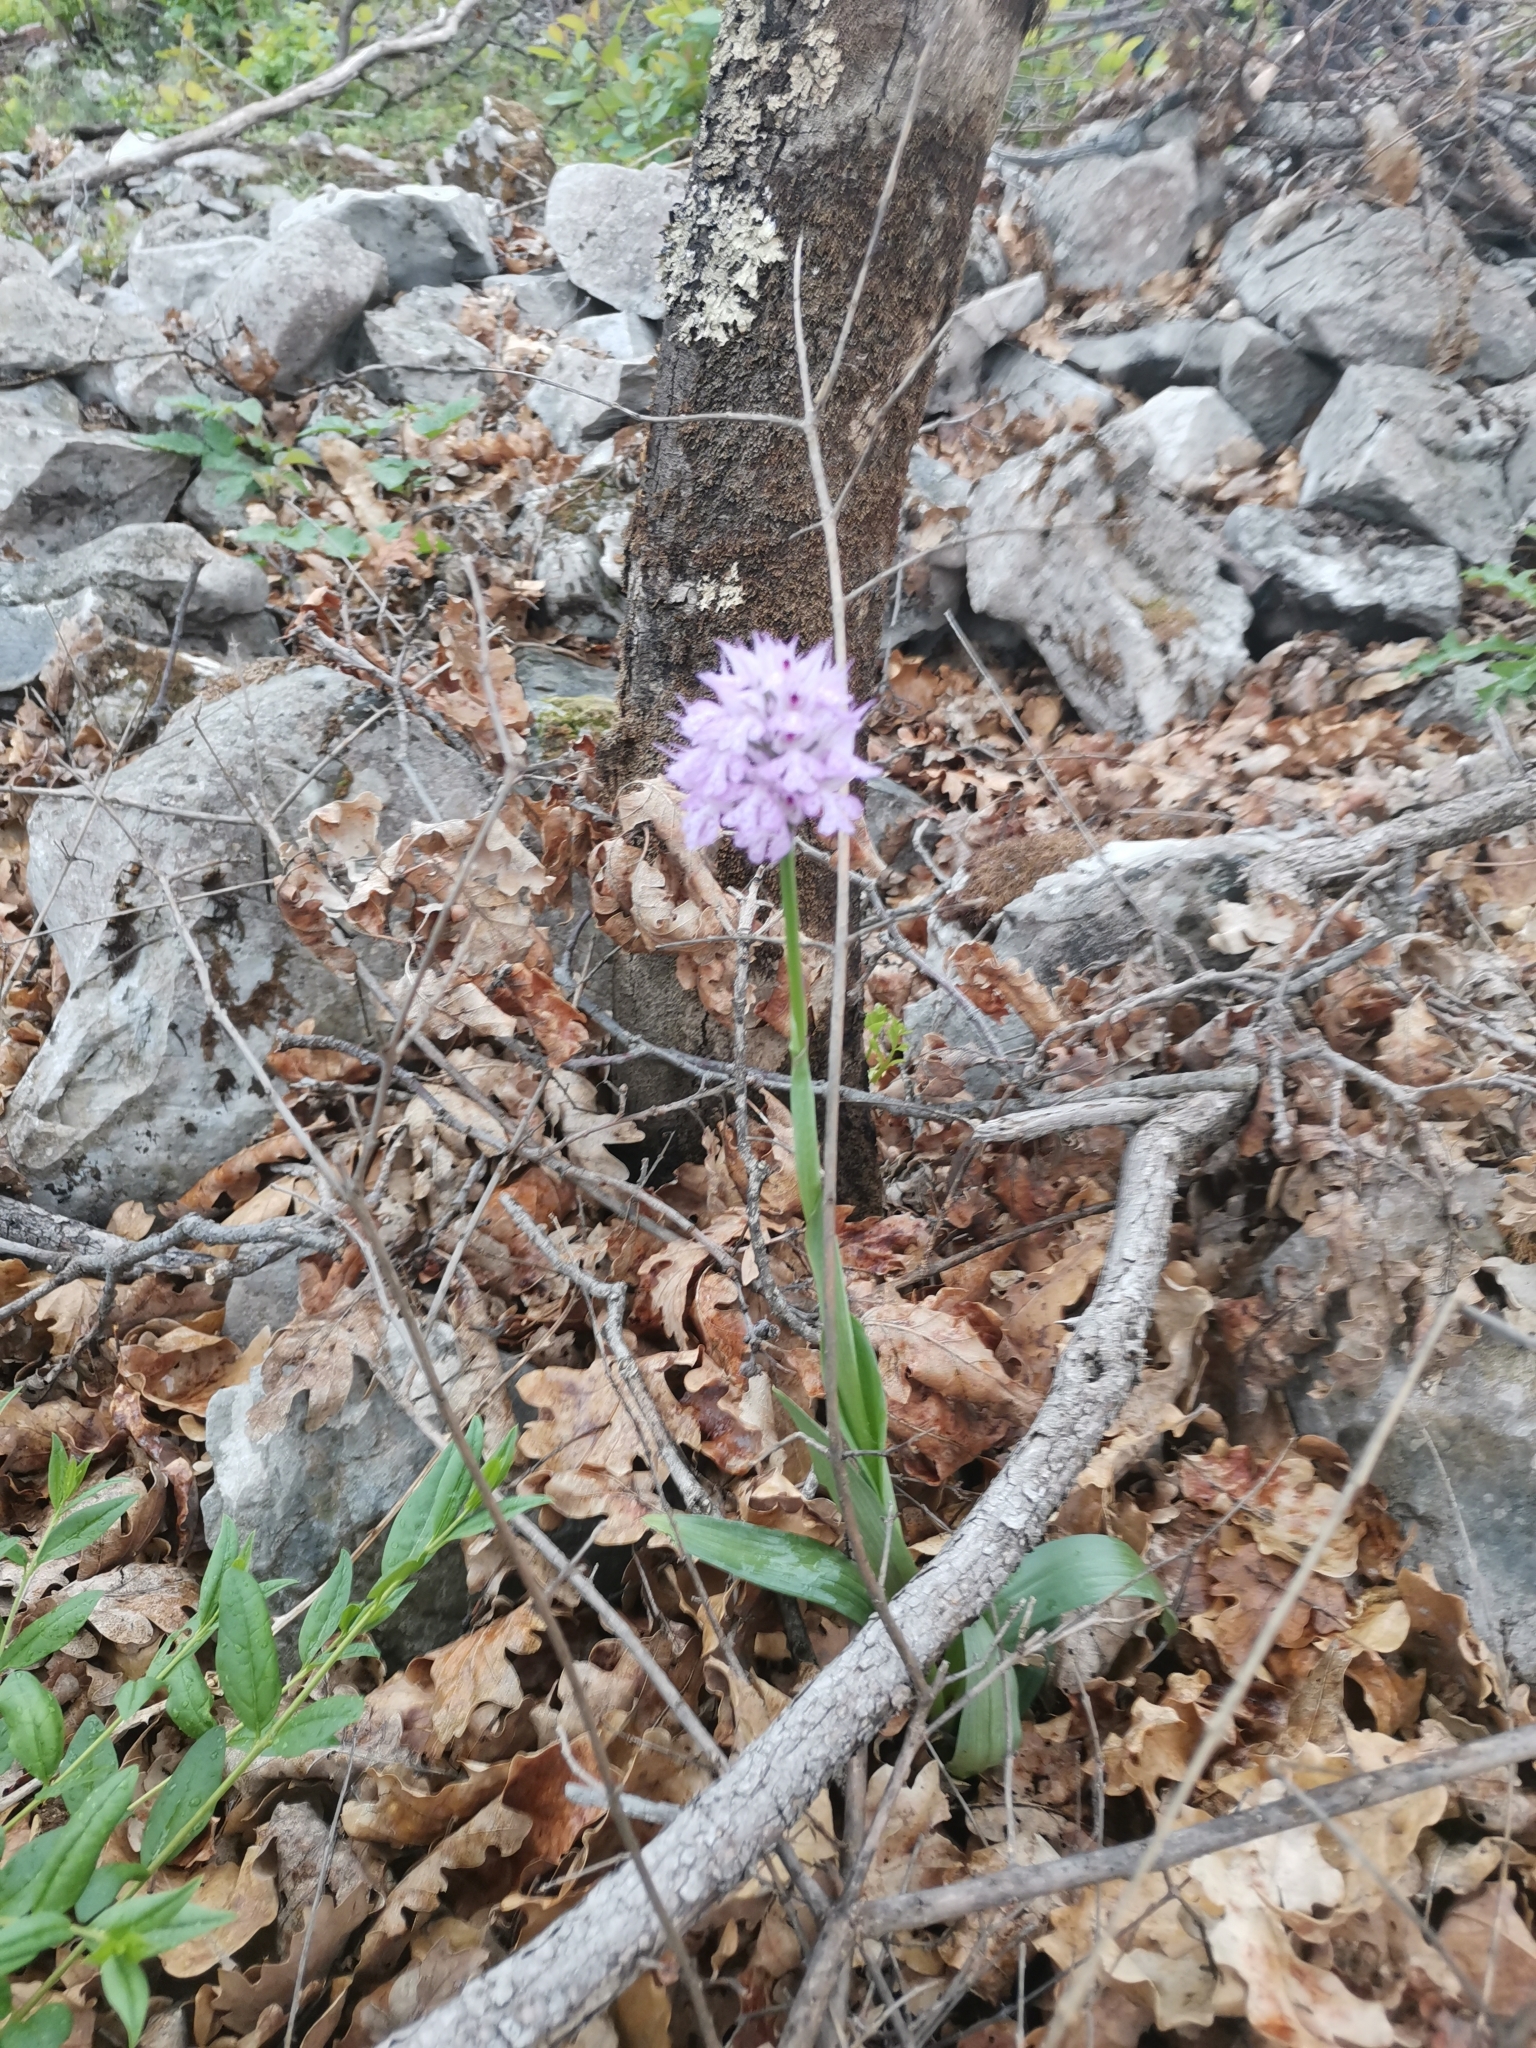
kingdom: Plantae
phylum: Tracheophyta
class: Liliopsida
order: Asparagales
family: Orchidaceae
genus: Neotinea
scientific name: Neotinea tridentata
